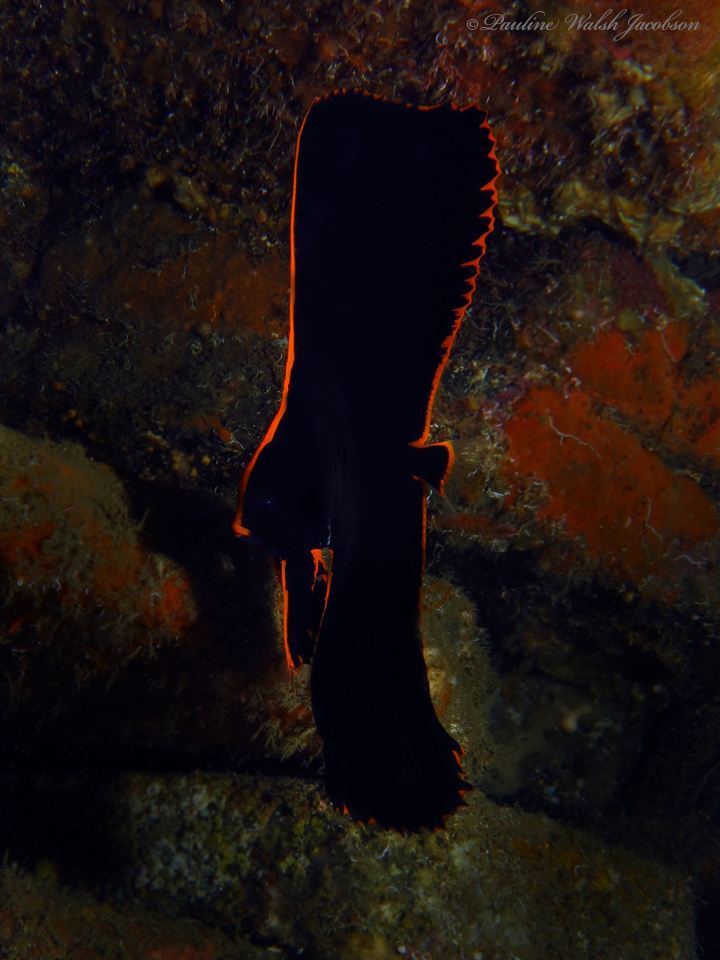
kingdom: Animalia
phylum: Chordata
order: Perciformes
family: Ephippidae
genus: Platax
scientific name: Platax pinnatus
